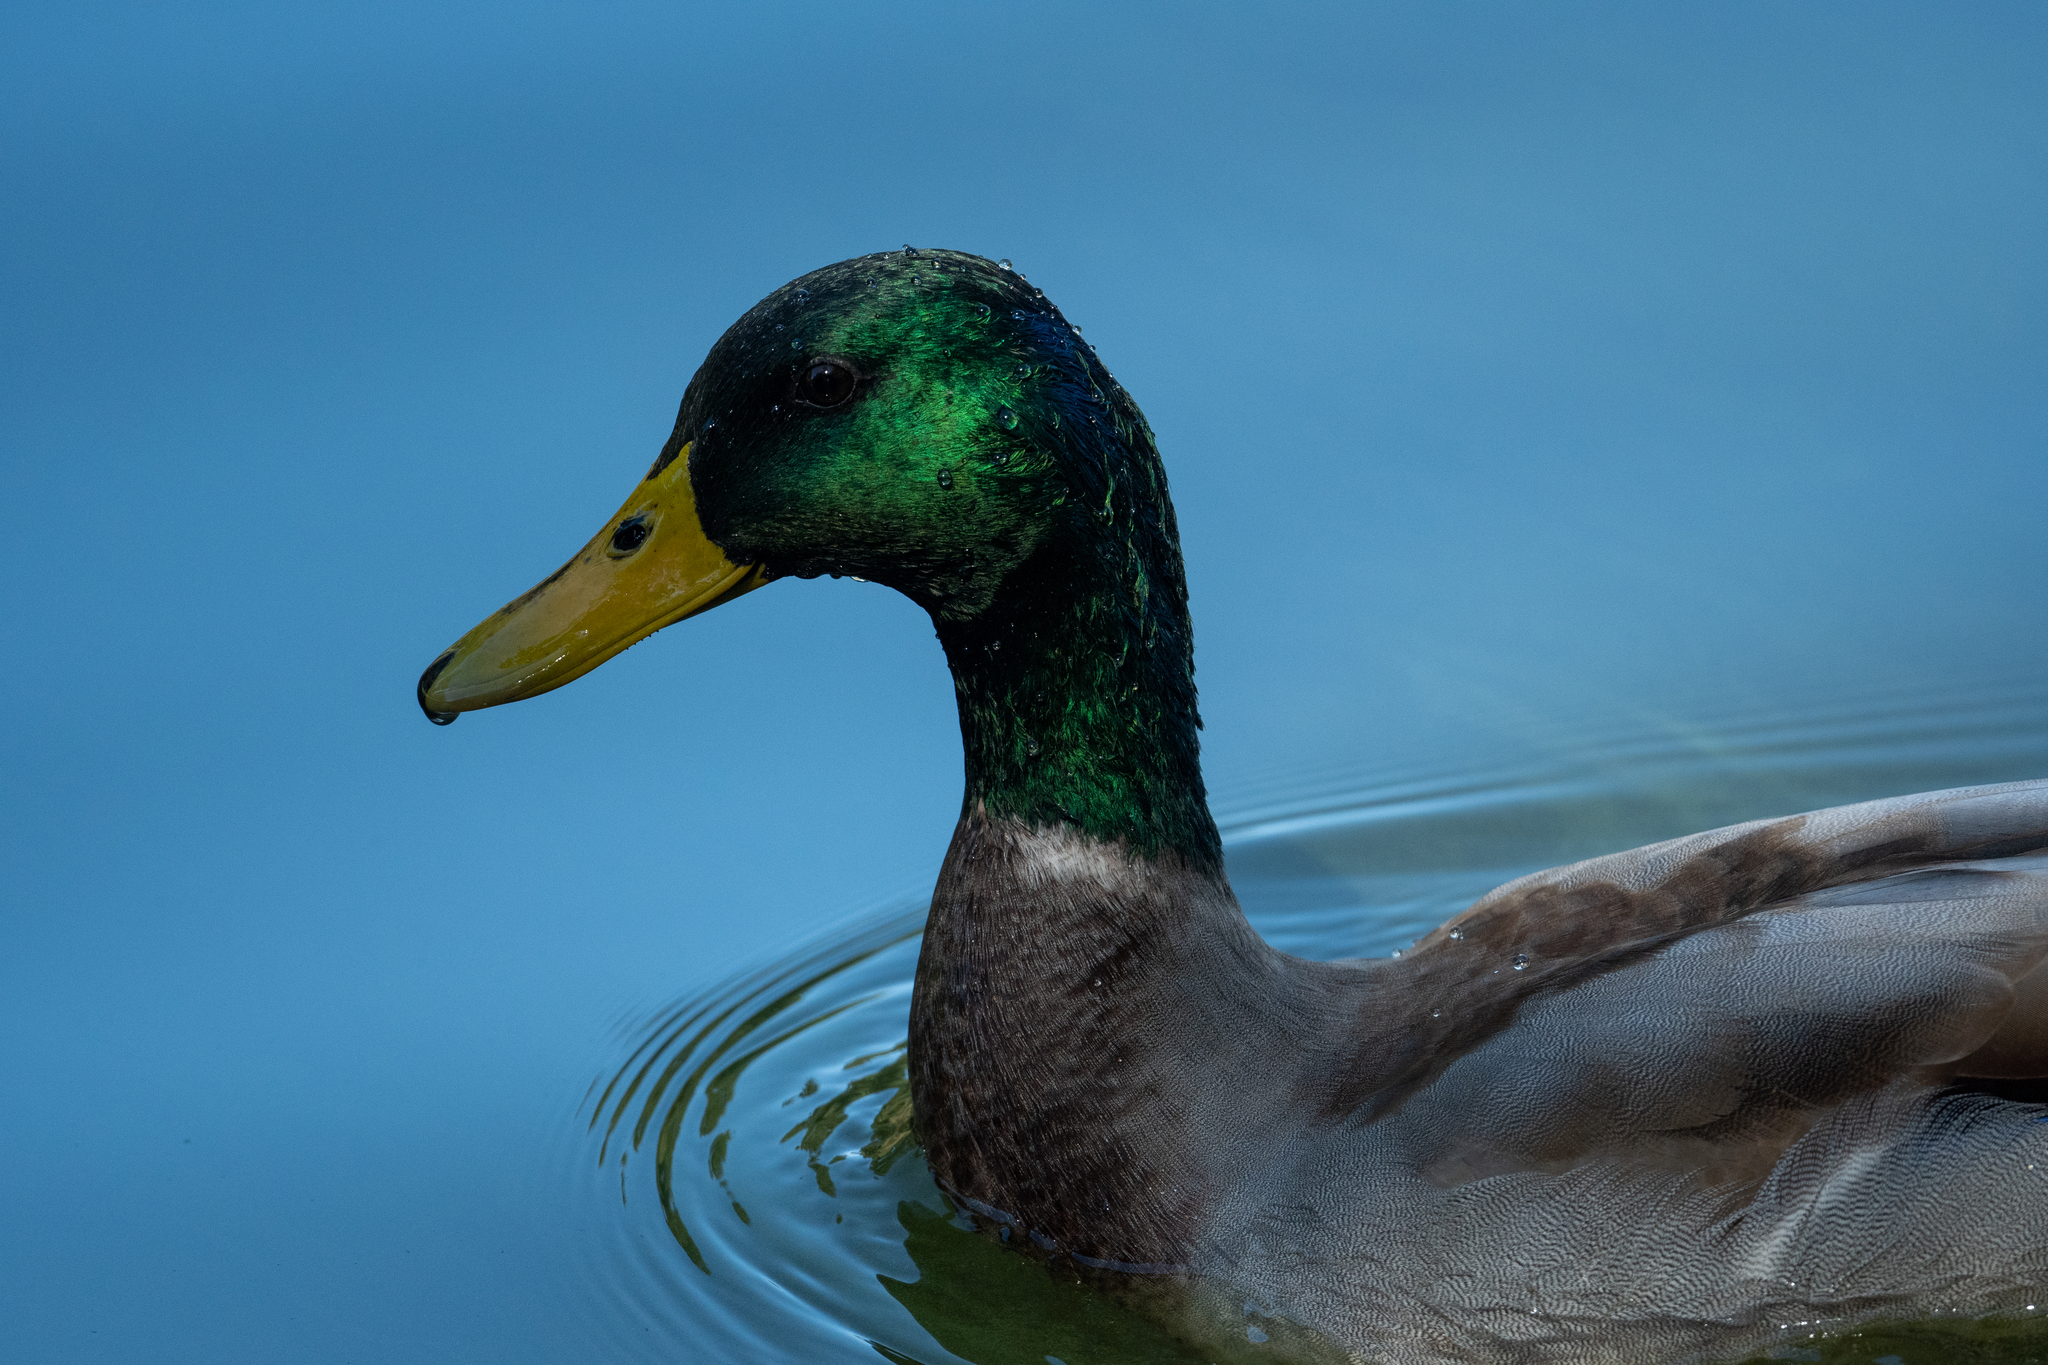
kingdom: Animalia
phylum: Chordata
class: Aves
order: Anseriformes
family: Anatidae
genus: Anas
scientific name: Anas platyrhynchos
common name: Mallard
